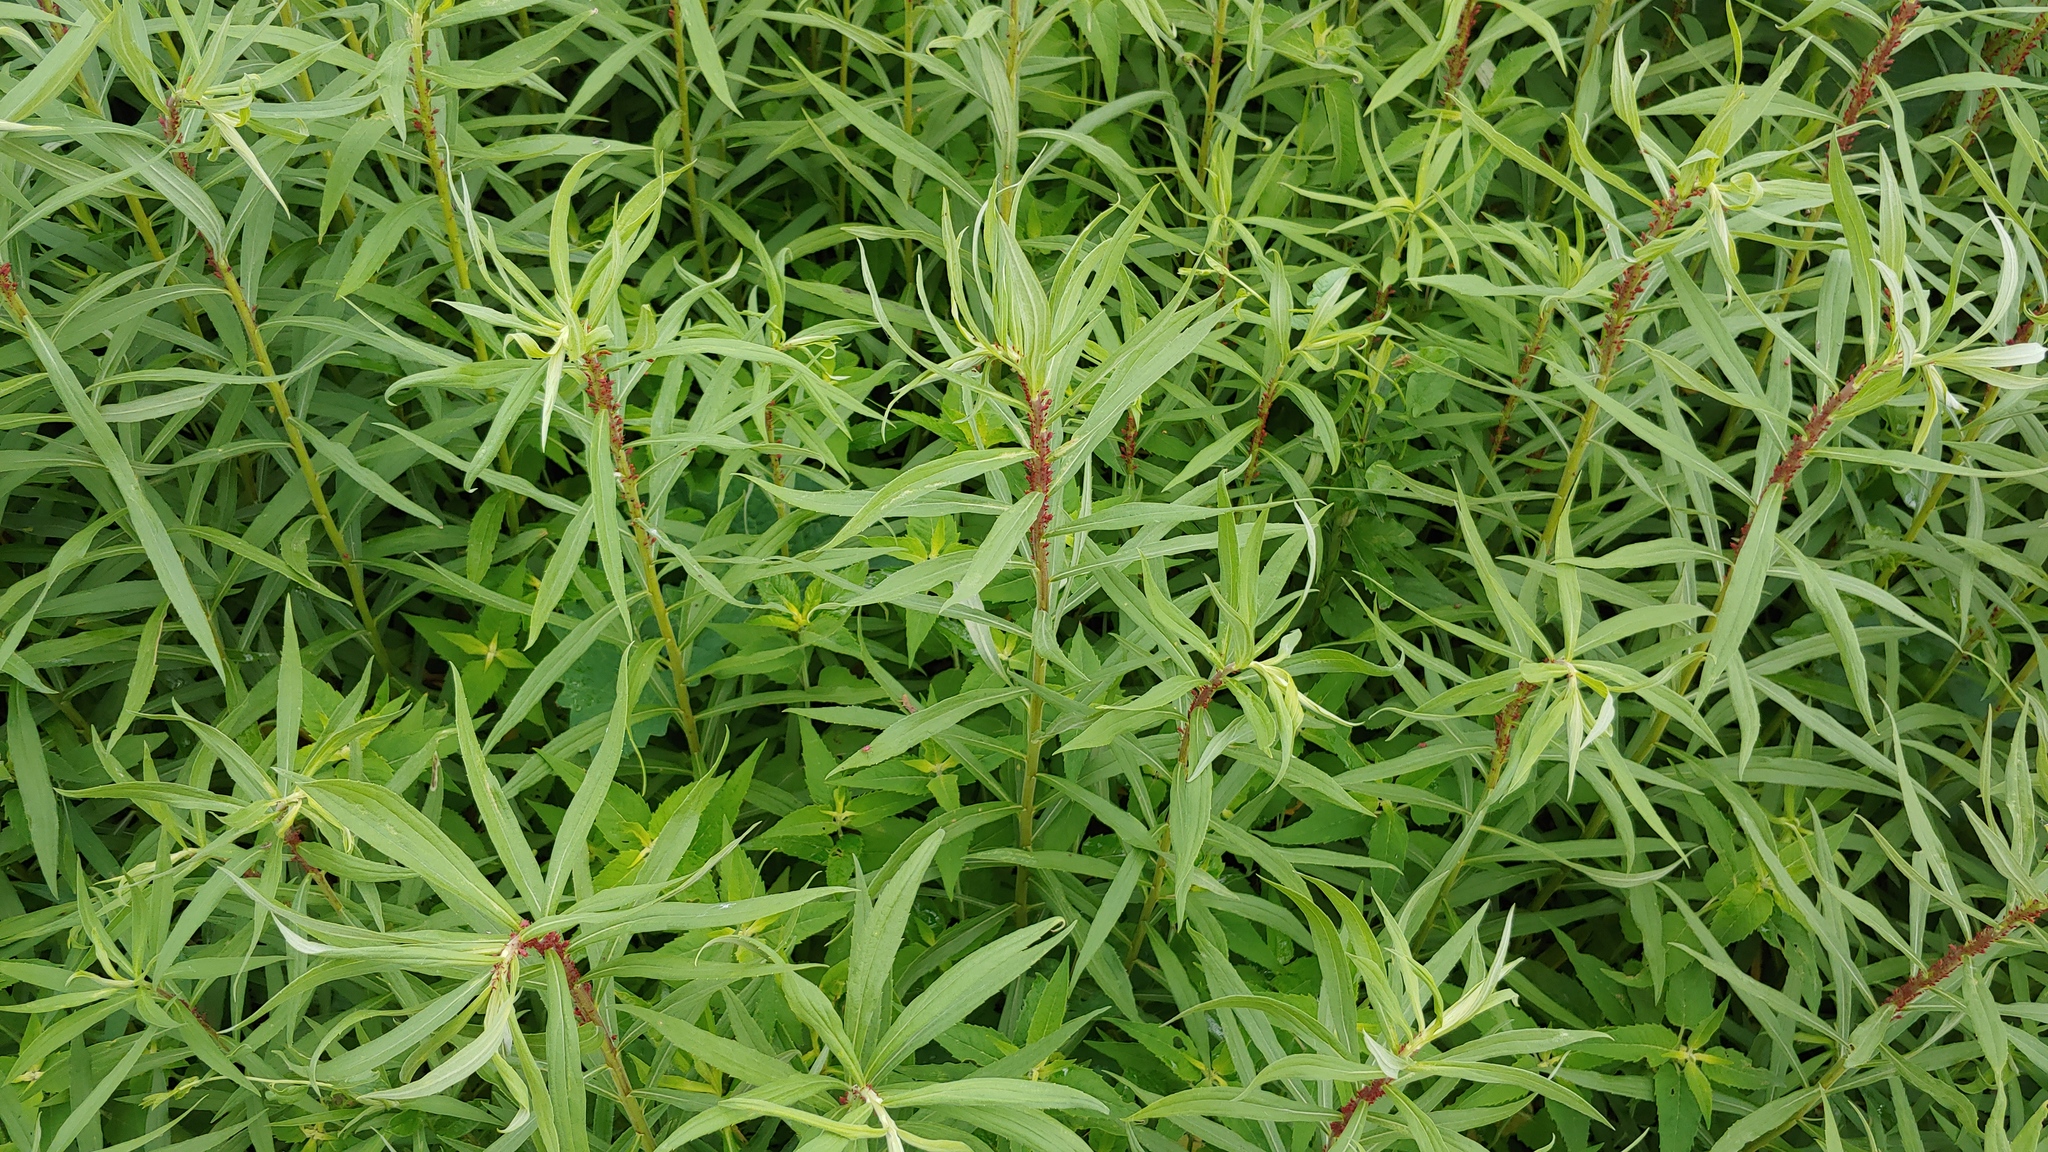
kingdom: Plantae
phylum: Tracheophyta
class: Magnoliopsida
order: Asterales
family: Asteraceae
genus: Solidago
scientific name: Solidago canadensis
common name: Canada goldenrod
